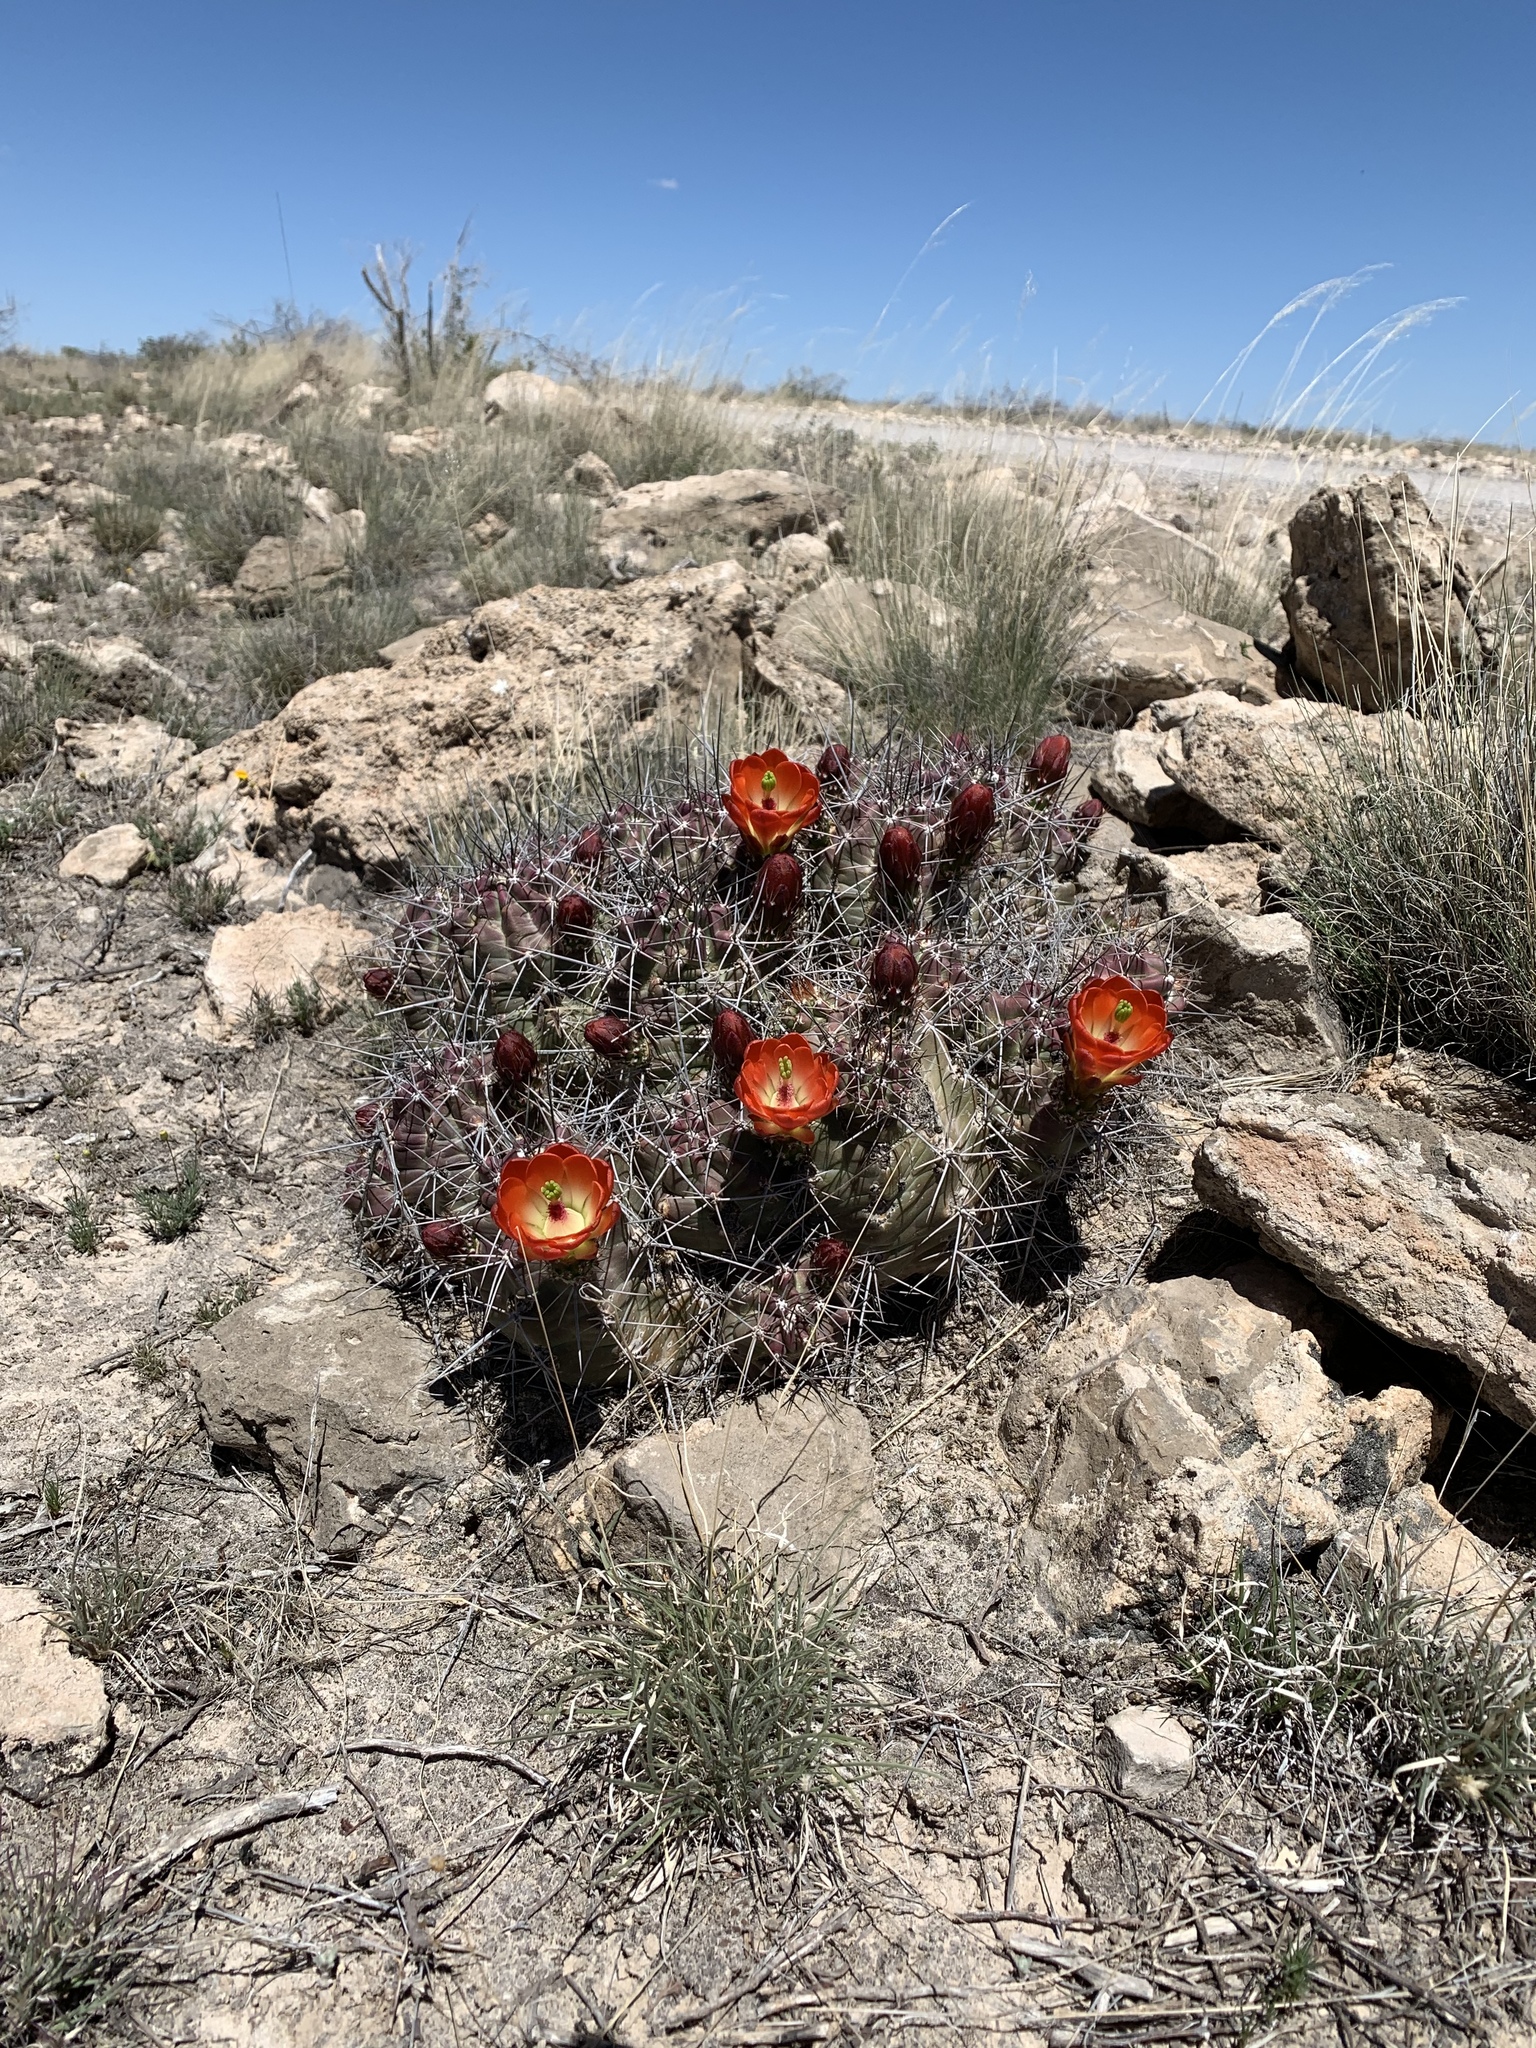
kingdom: Plantae
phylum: Tracheophyta
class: Magnoliopsida
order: Caryophyllales
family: Cactaceae
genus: Echinocereus
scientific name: Echinocereus coccineus
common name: Scarlet hedgehog cactus
